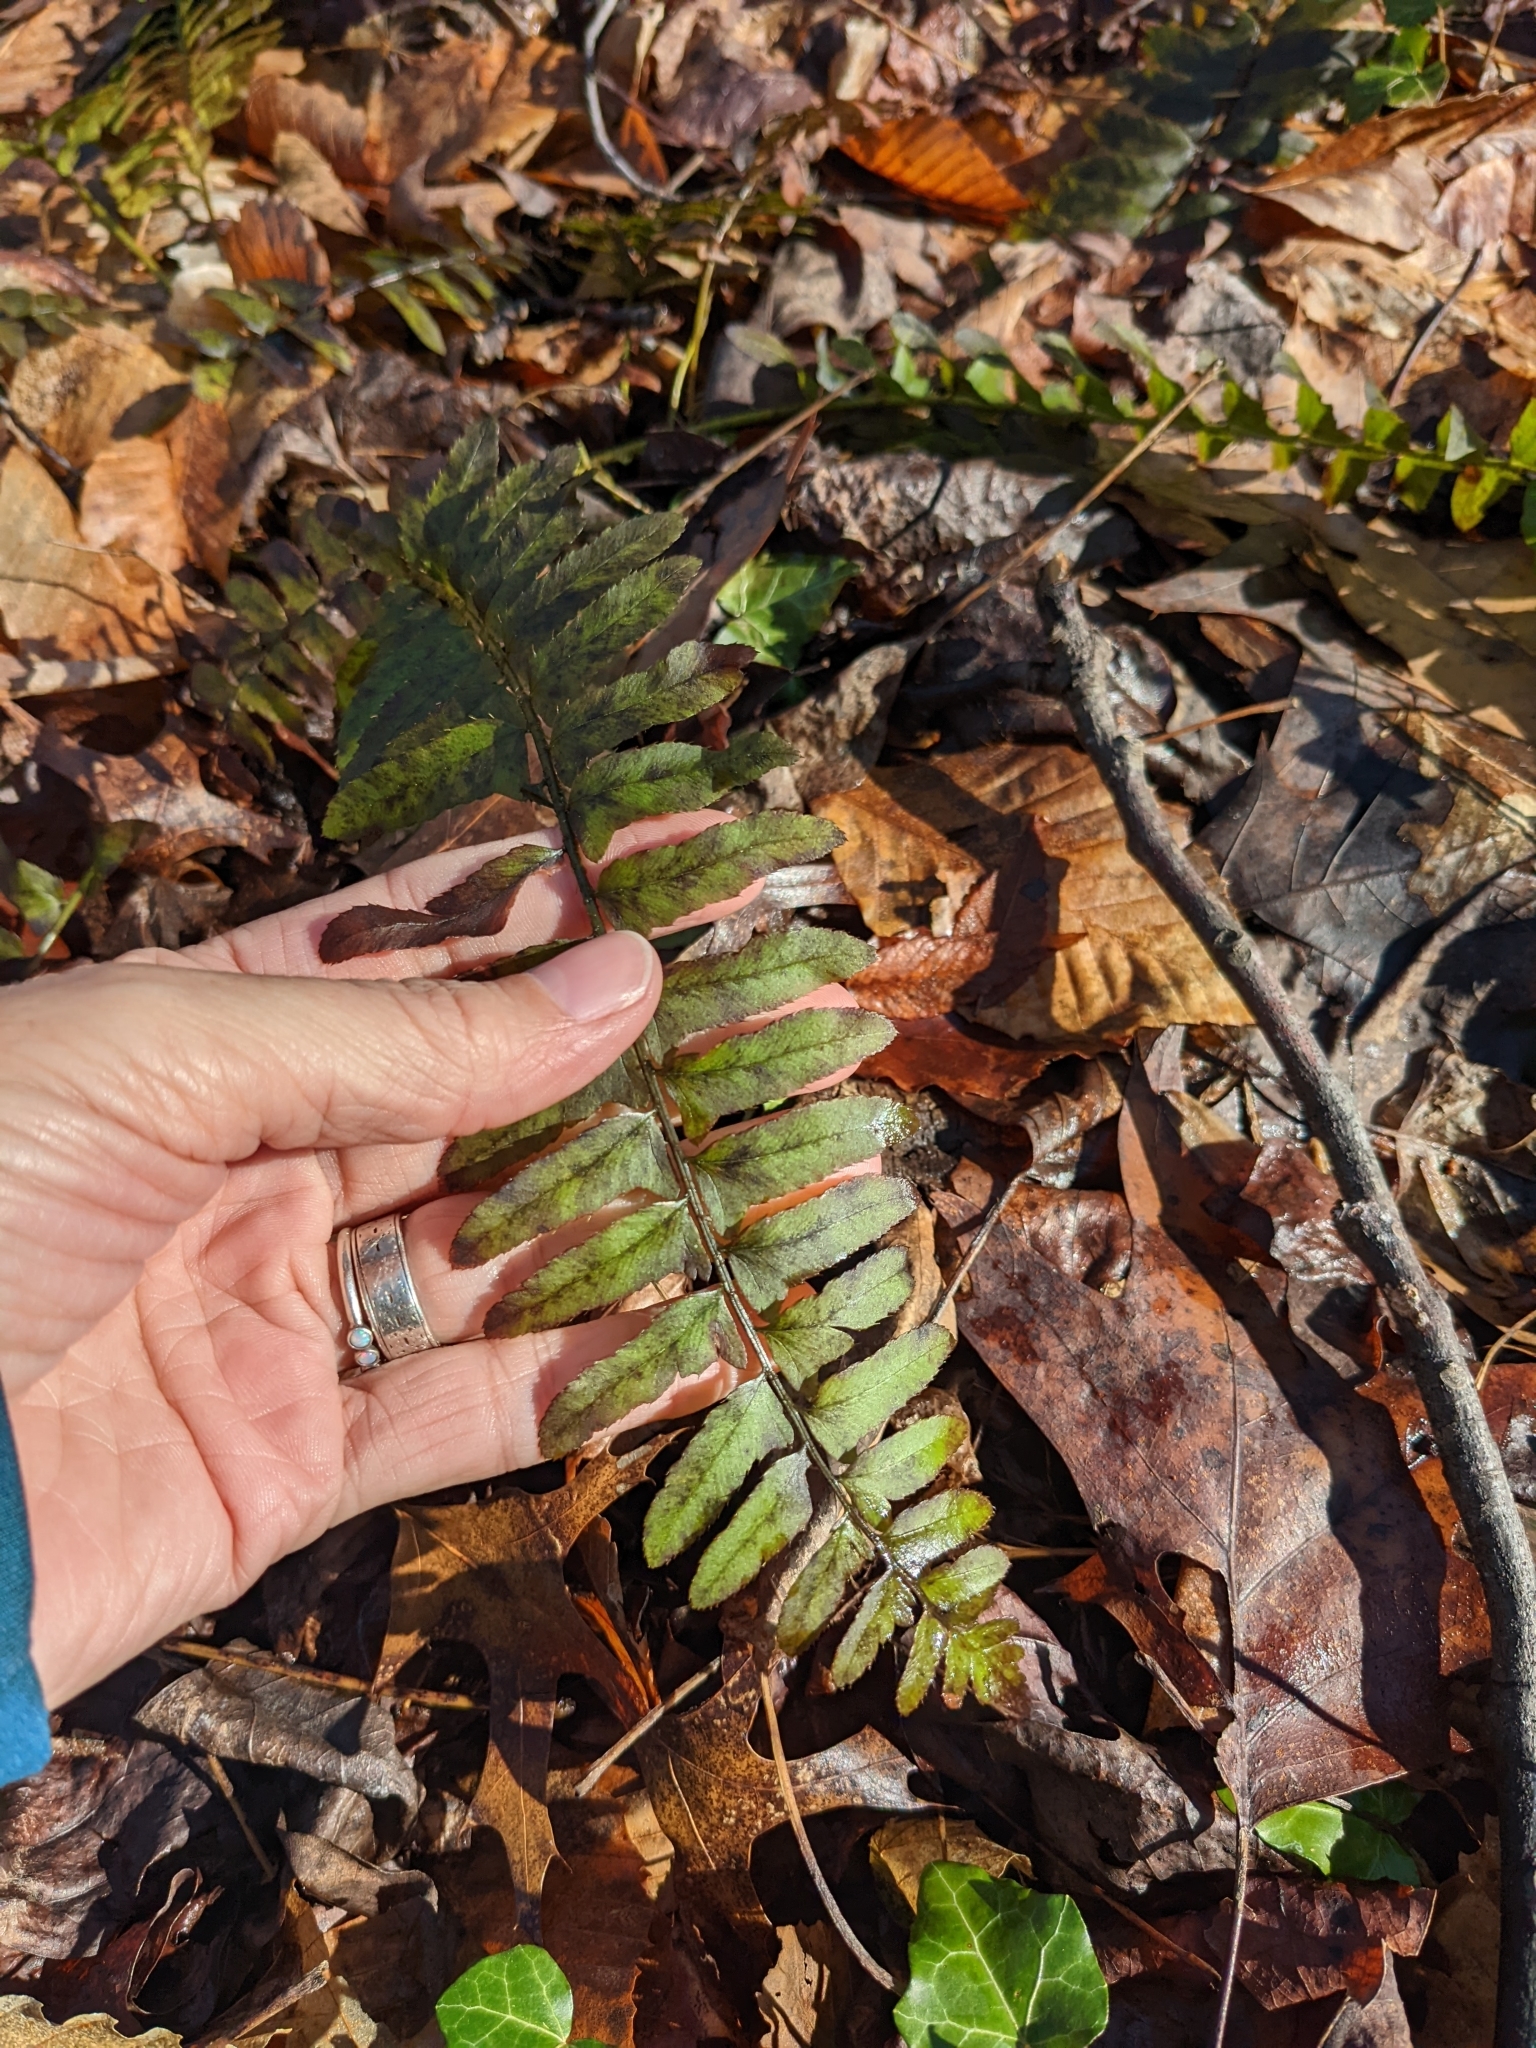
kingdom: Plantae
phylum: Tracheophyta
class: Polypodiopsida
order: Polypodiales
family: Dryopteridaceae
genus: Polystichum
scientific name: Polystichum acrostichoides
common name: Christmas fern
